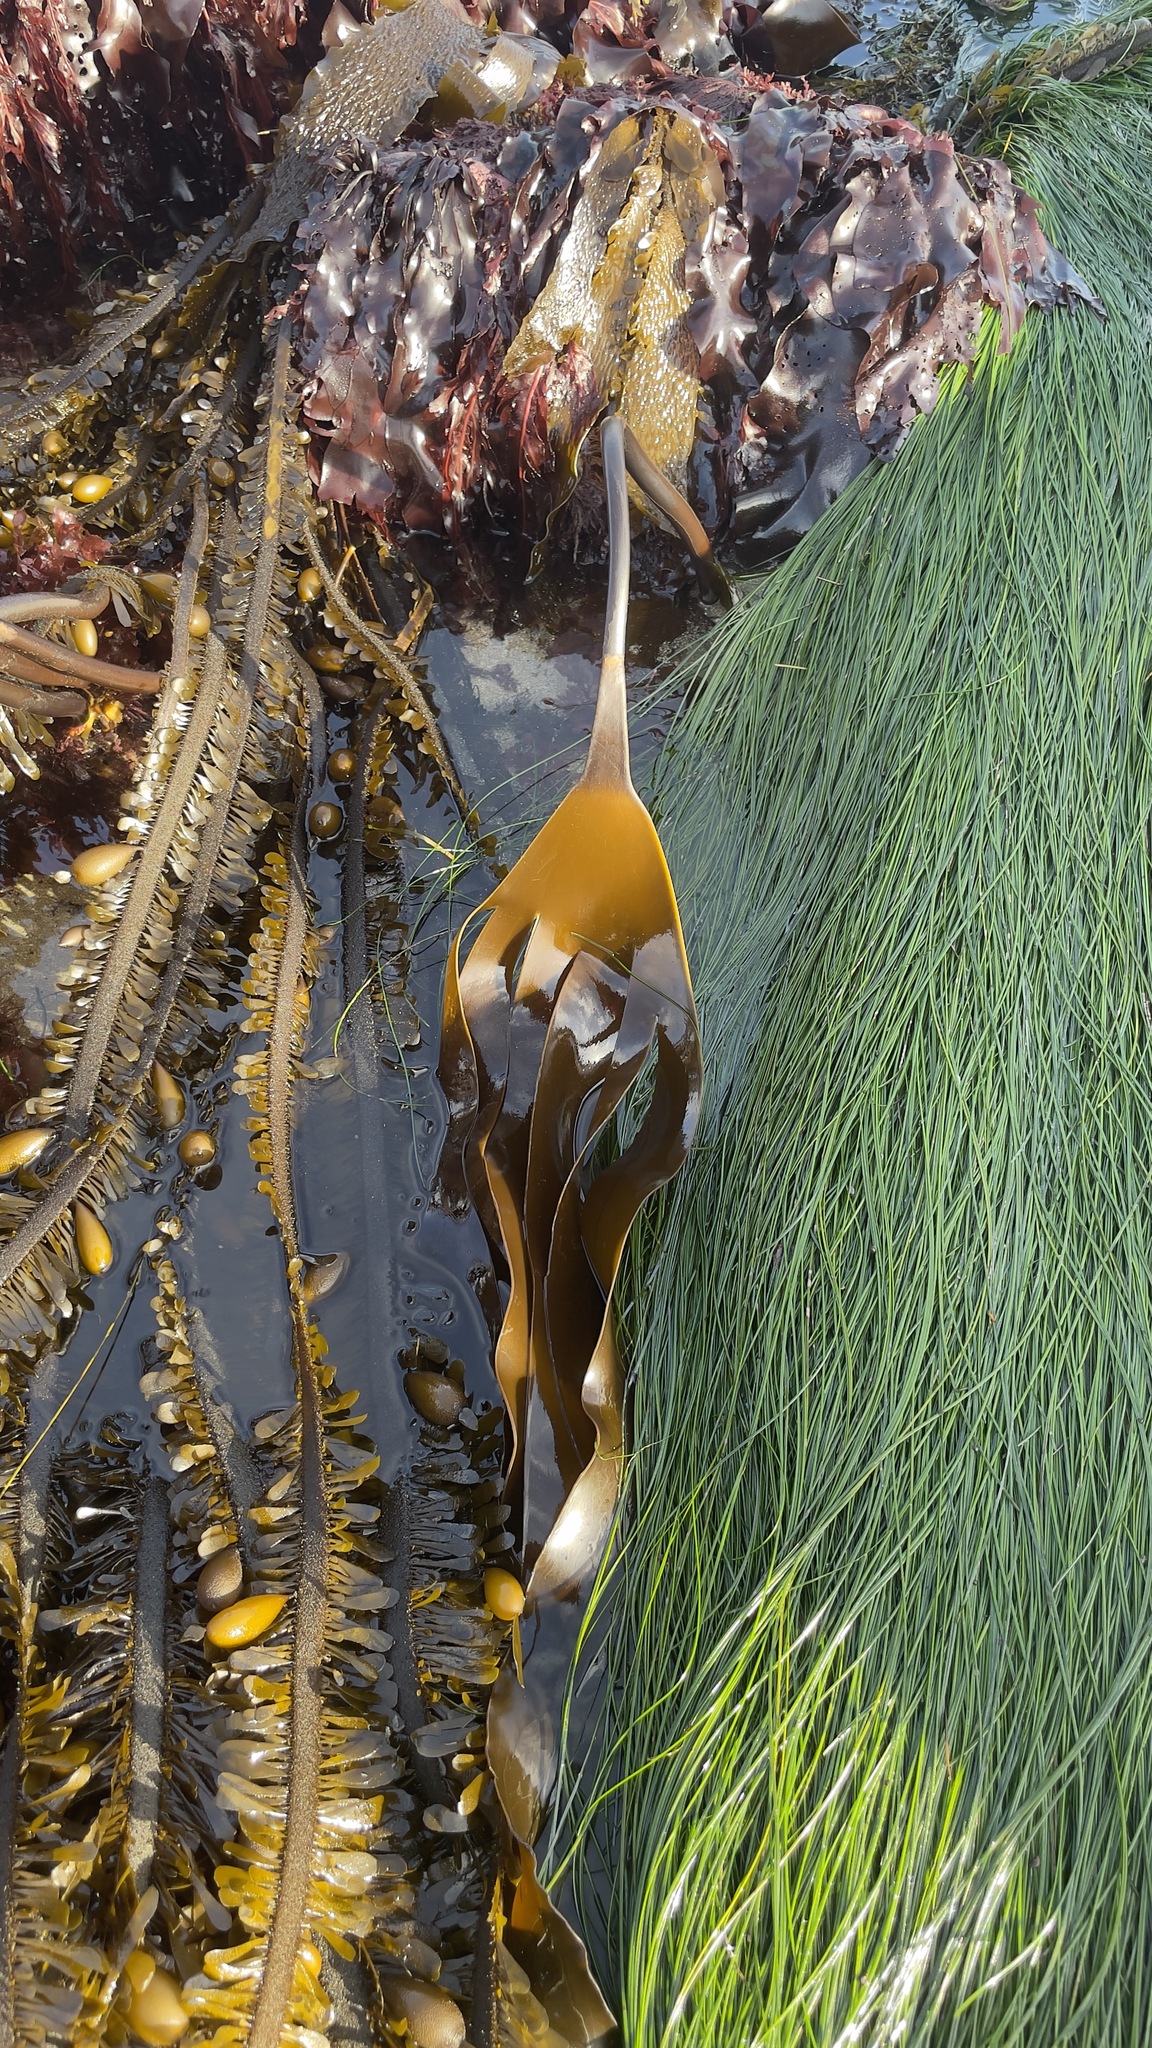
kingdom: Chromista
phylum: Ochrophyta
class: Phaeophyceae
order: Laminariales
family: Laminariaceae
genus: Laminaria
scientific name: Laminaria setchellii
